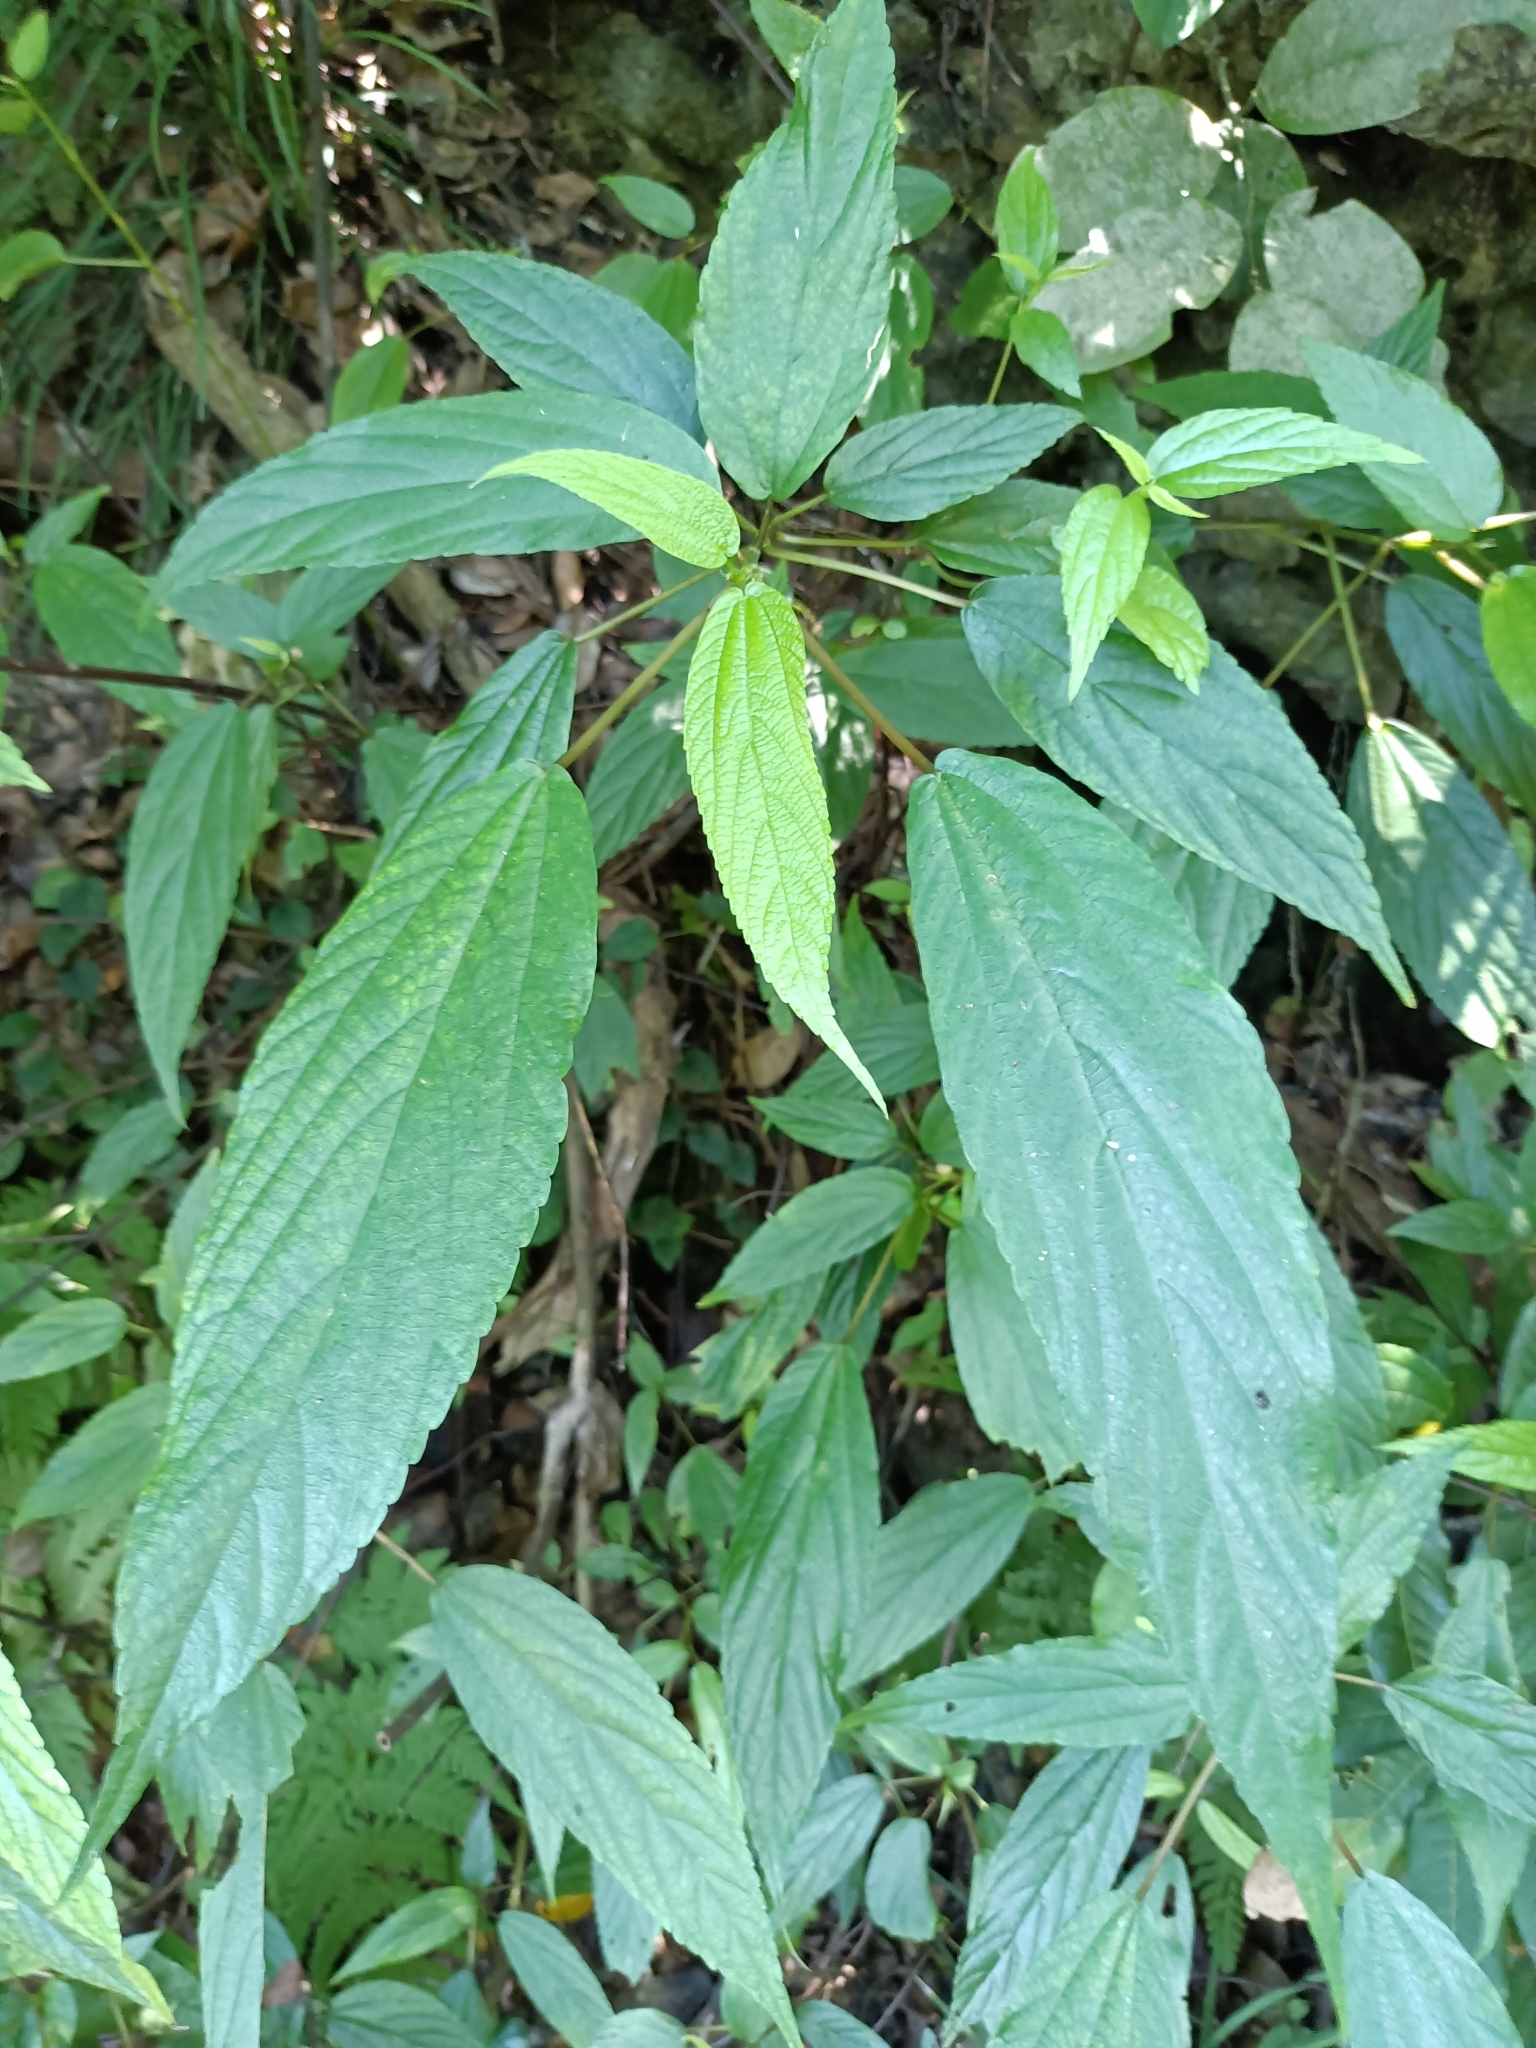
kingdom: Plantae
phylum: Tracheophyta
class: Magnoliopsida
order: Rosales
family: Urticaceae
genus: Boehmeria
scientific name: Boehmeria zollingeriana
